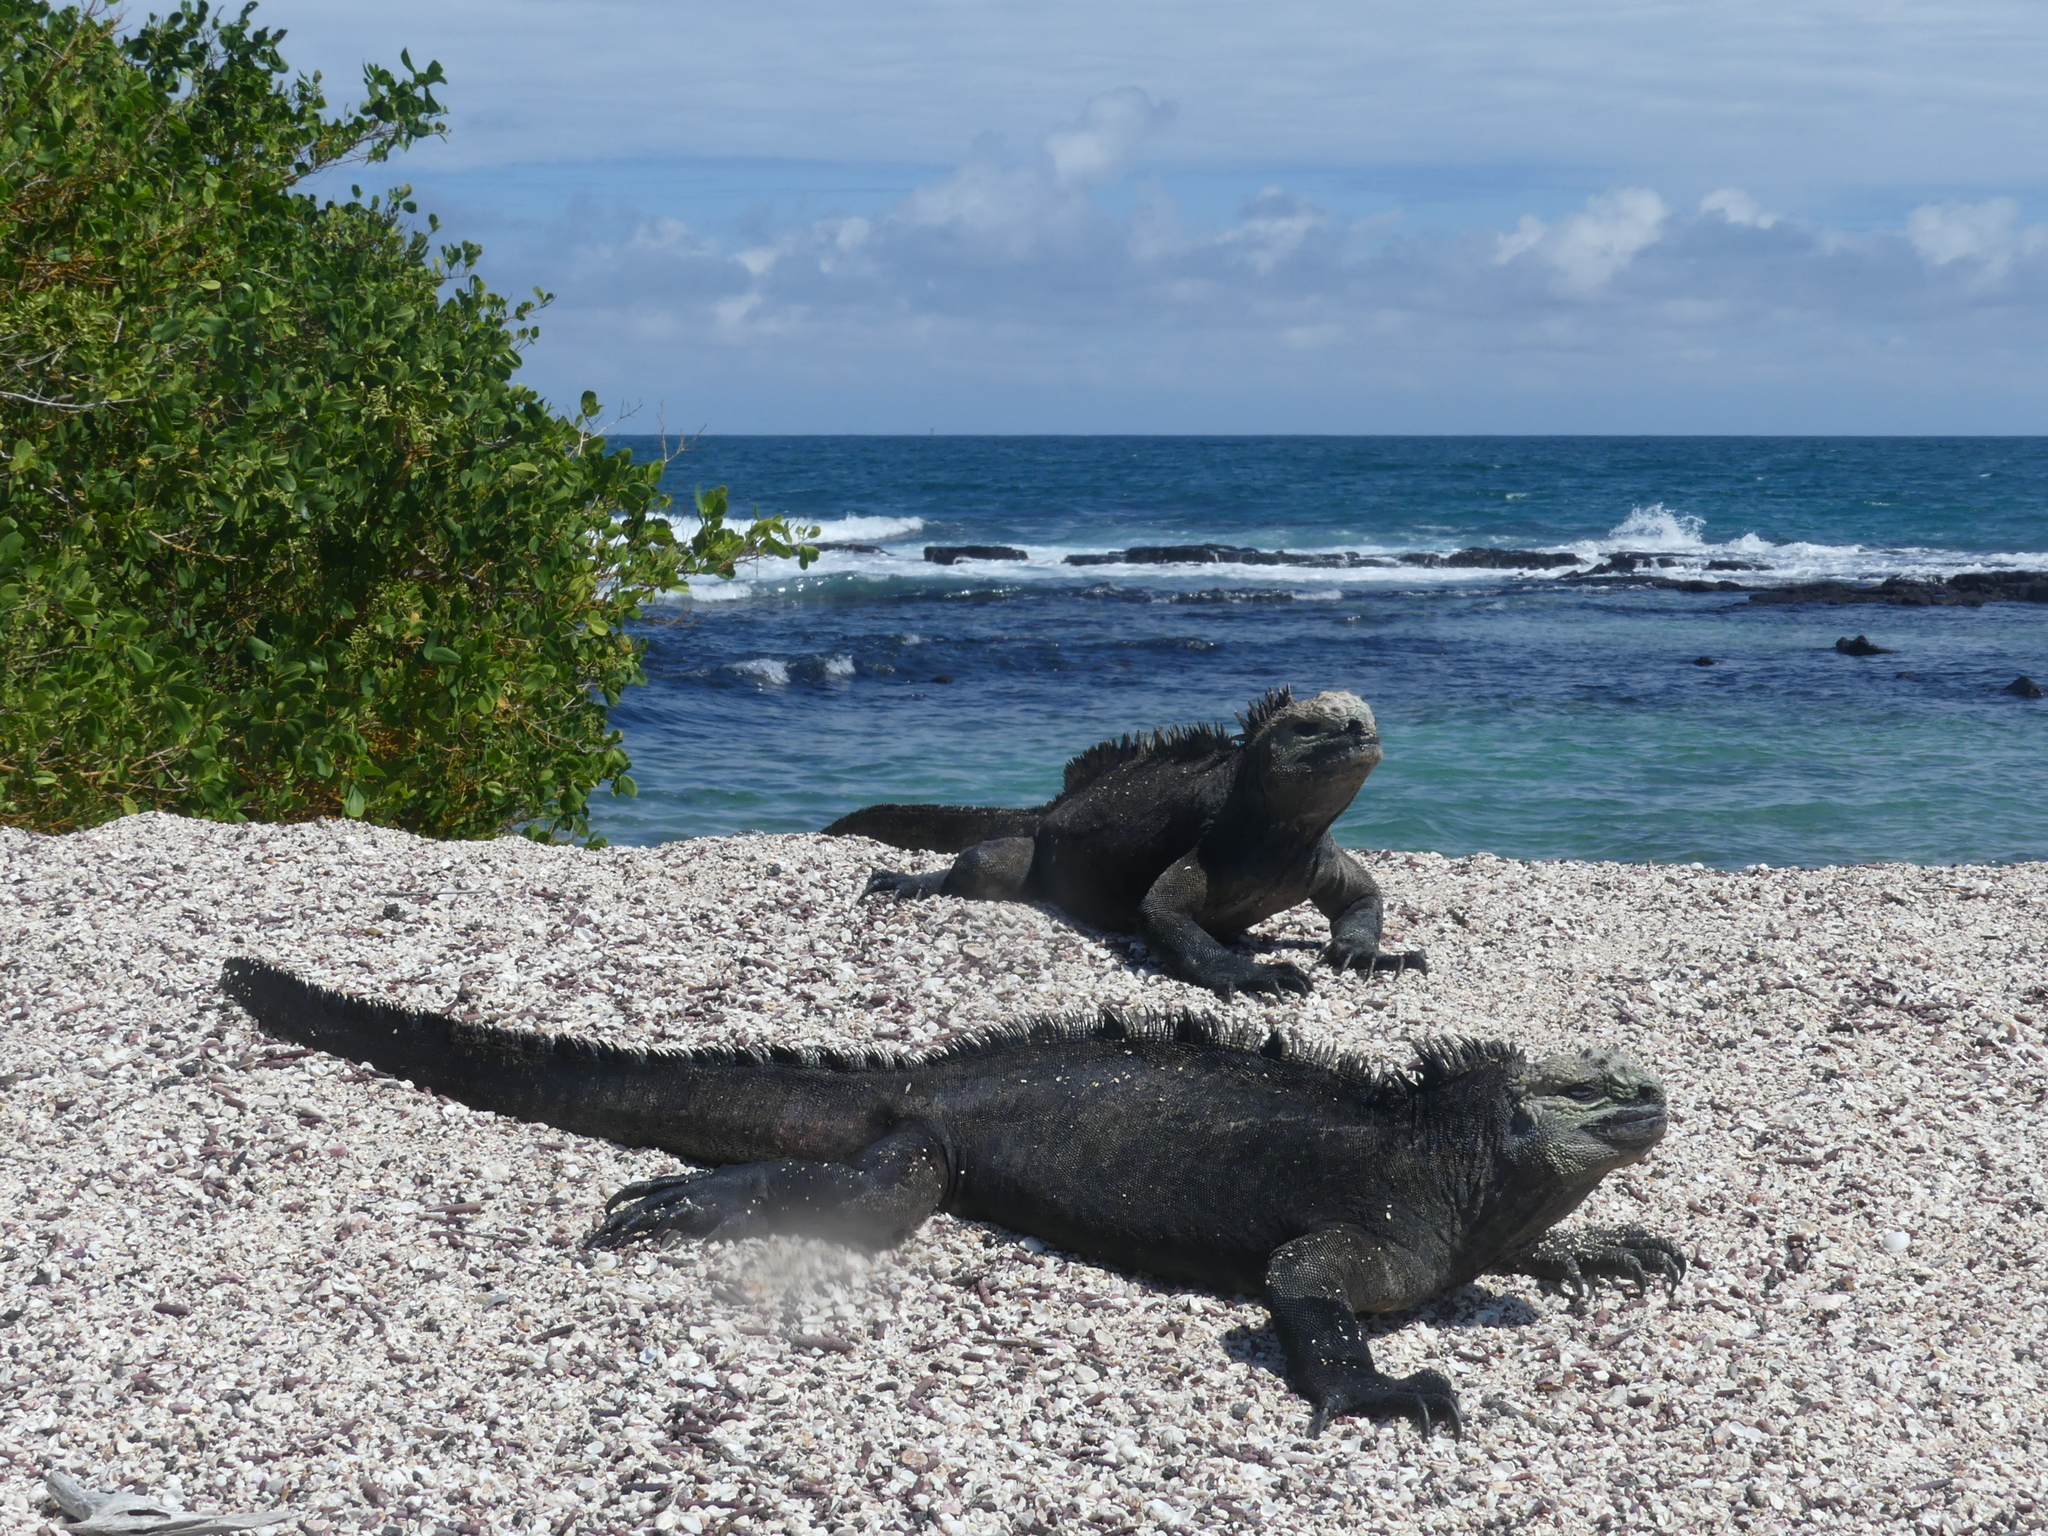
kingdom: Animalia
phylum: Chordata
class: Squamata
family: Iguanidae
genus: Amblyrhynchus
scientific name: Amblyrhynchus cristatus
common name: Marine iguana
